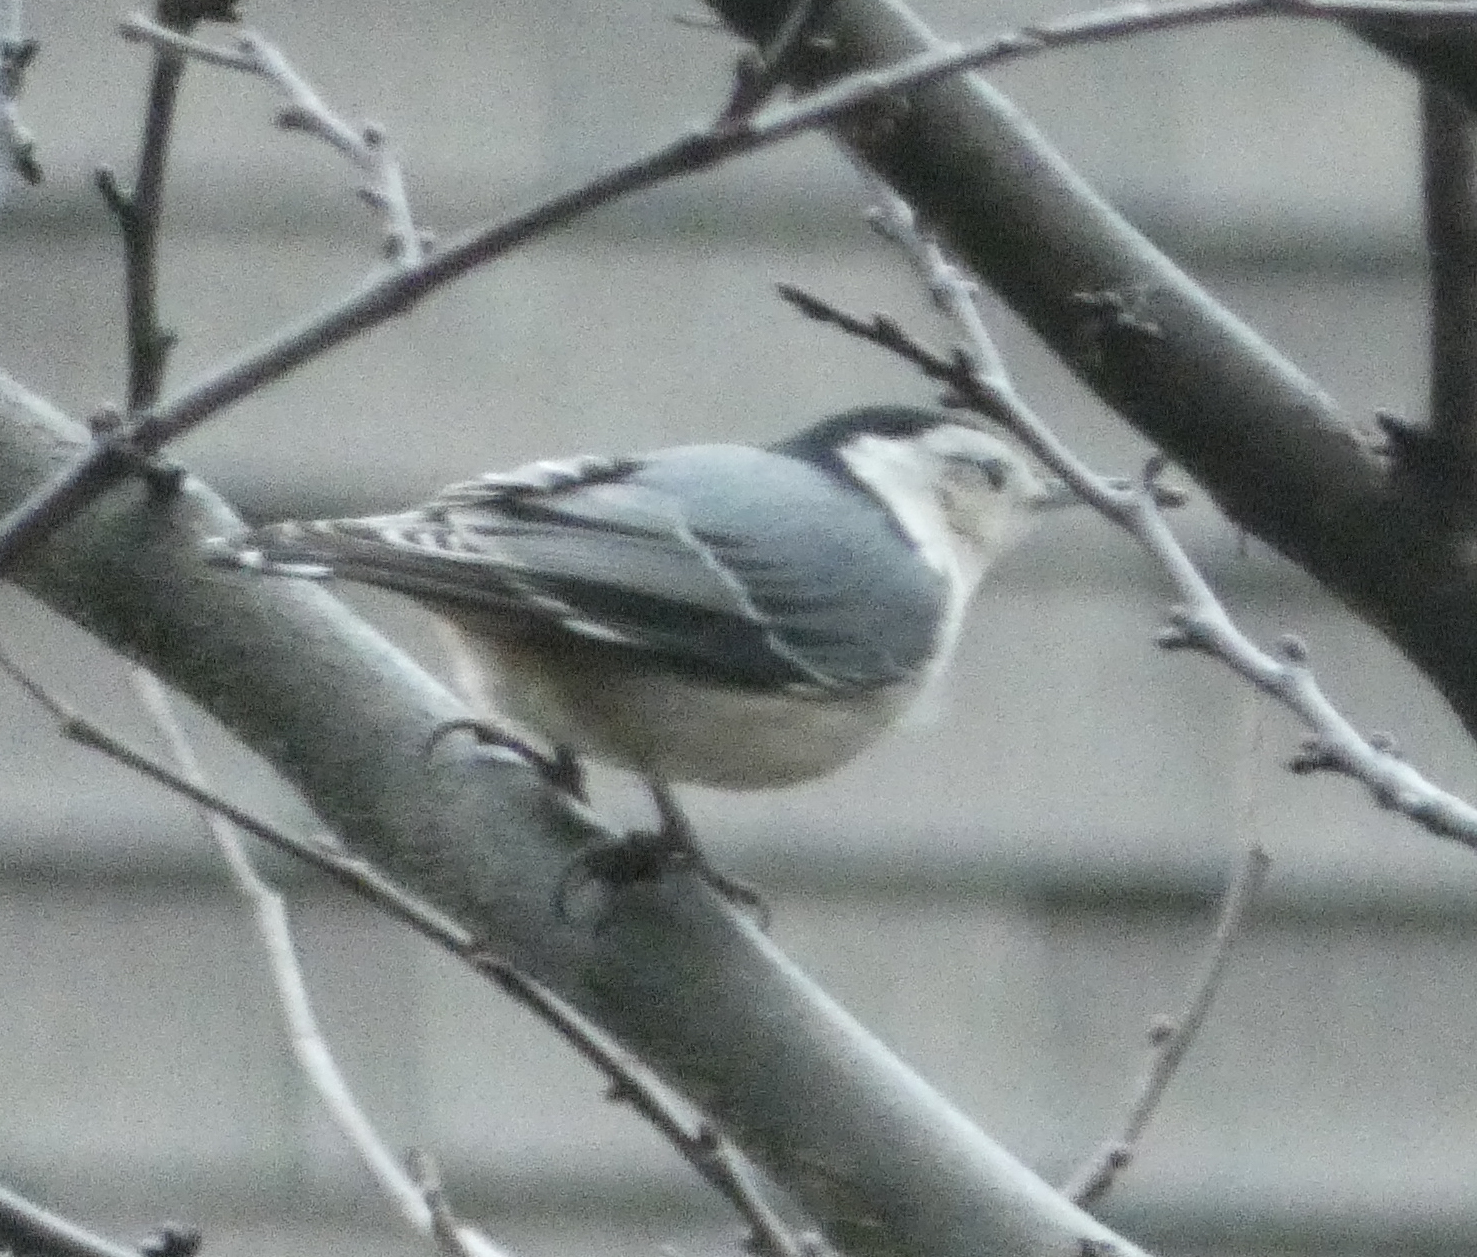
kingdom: Animalia
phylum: Chordata
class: Aves
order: Passeriformes
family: Sittidae
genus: Sitta
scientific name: Sitta carolinensis
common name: White-breasted nuthatch
